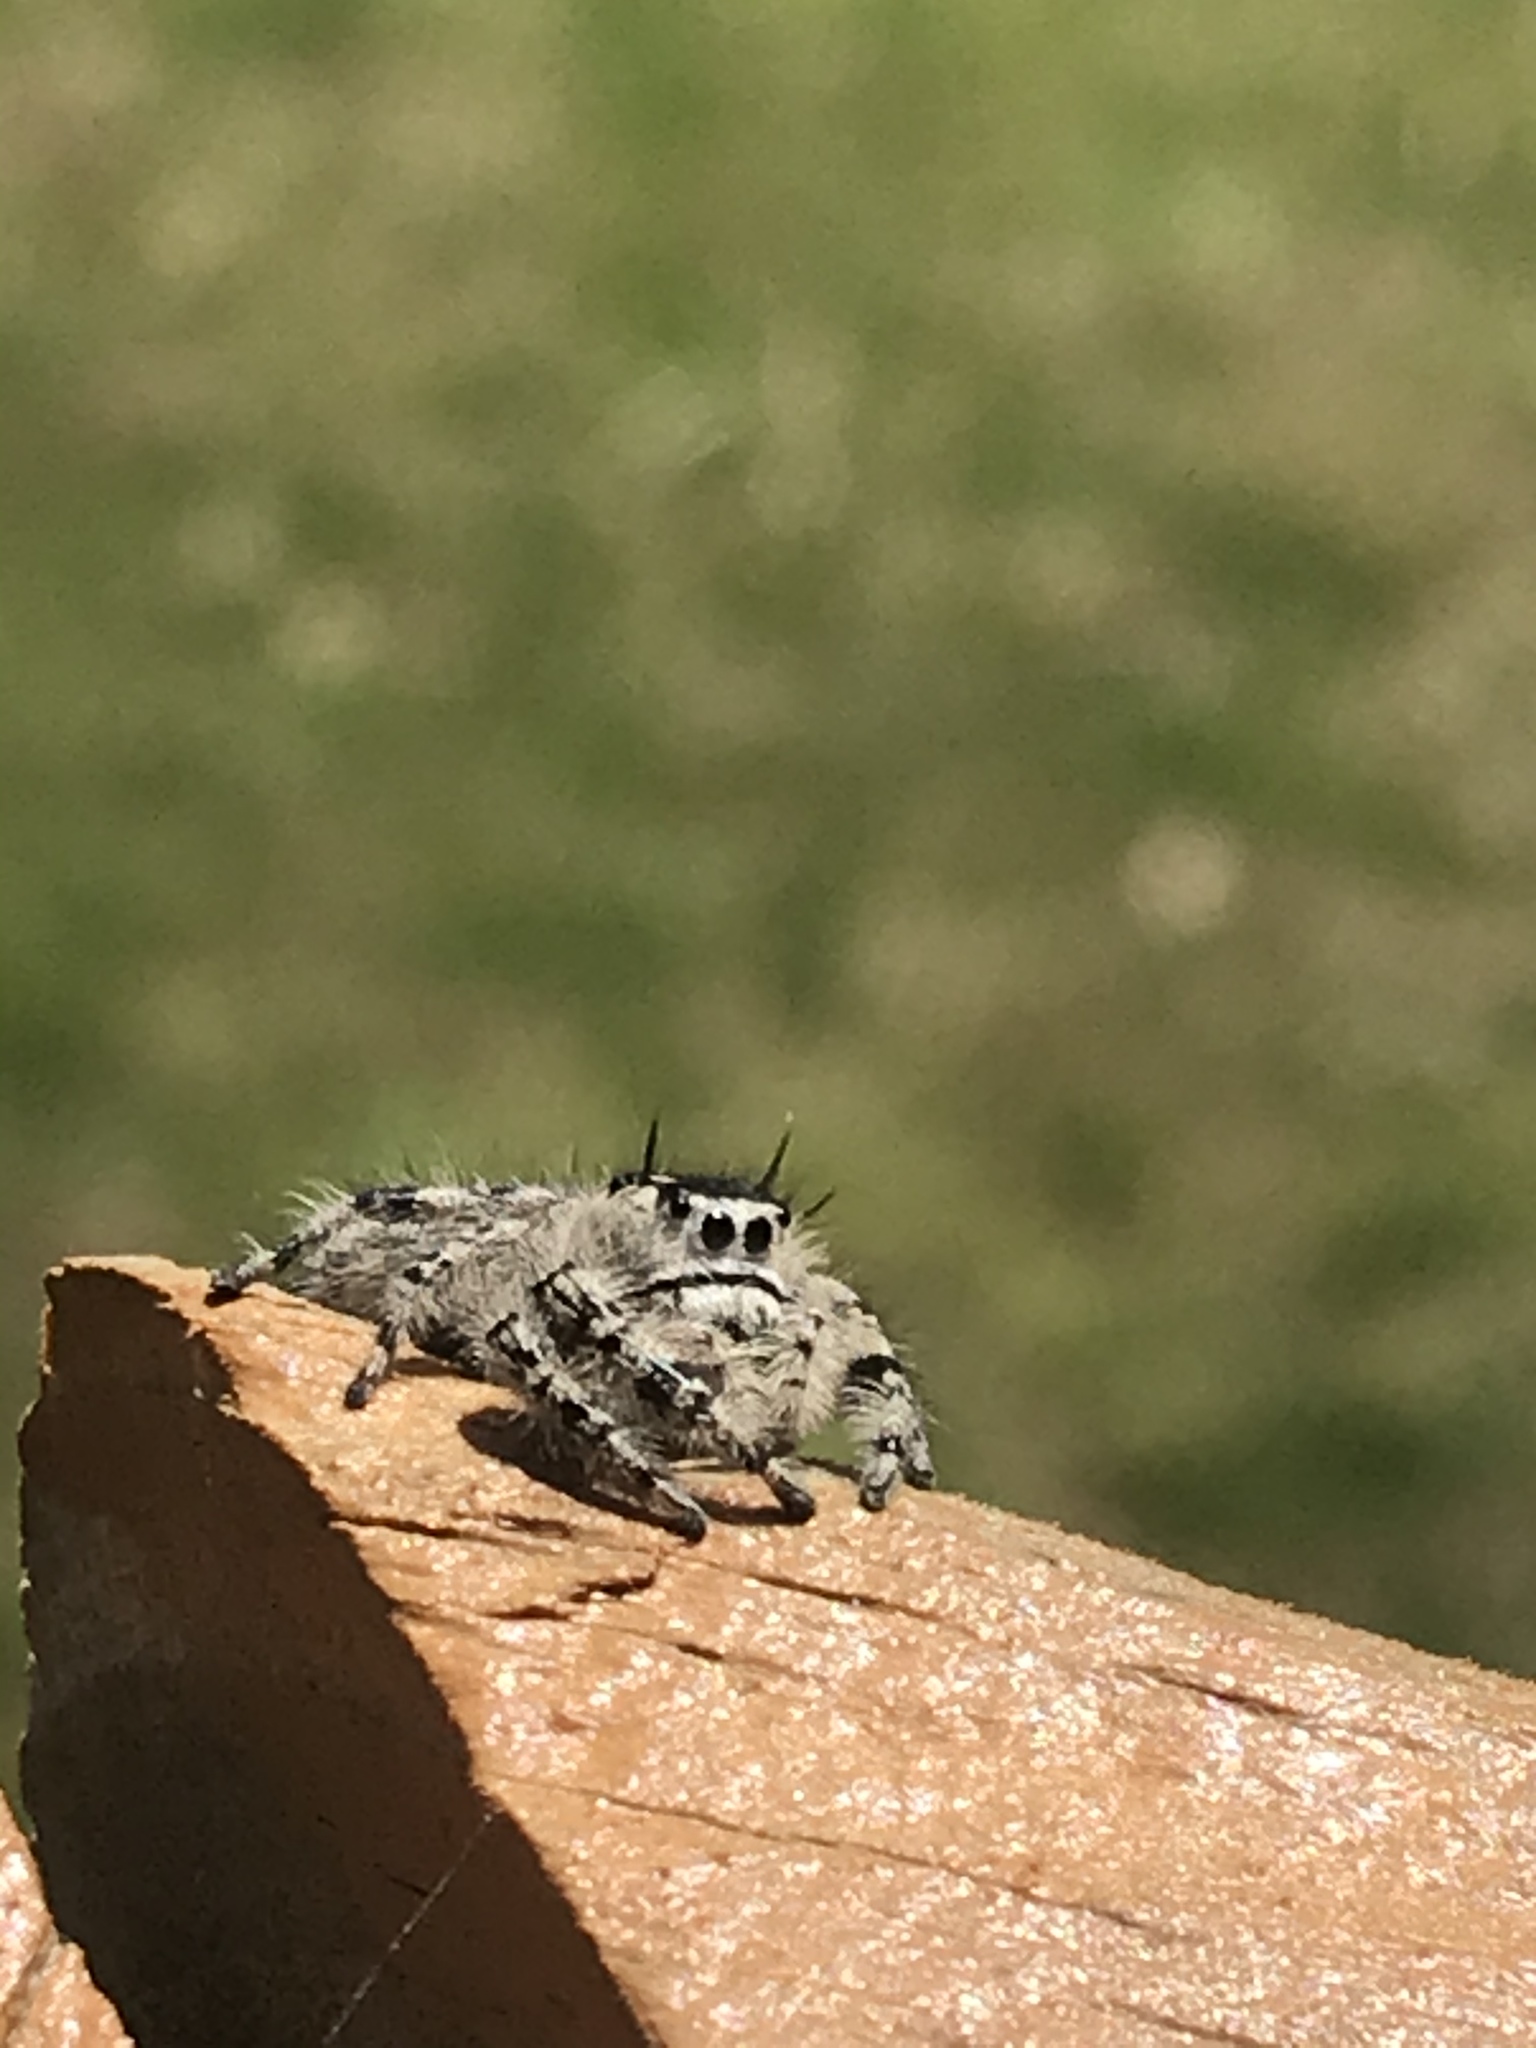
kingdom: Animalia
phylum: Arthropoda
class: Arachnida
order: Araneae
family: Salticidae
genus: Phidippus
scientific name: Phidippus otiosus
